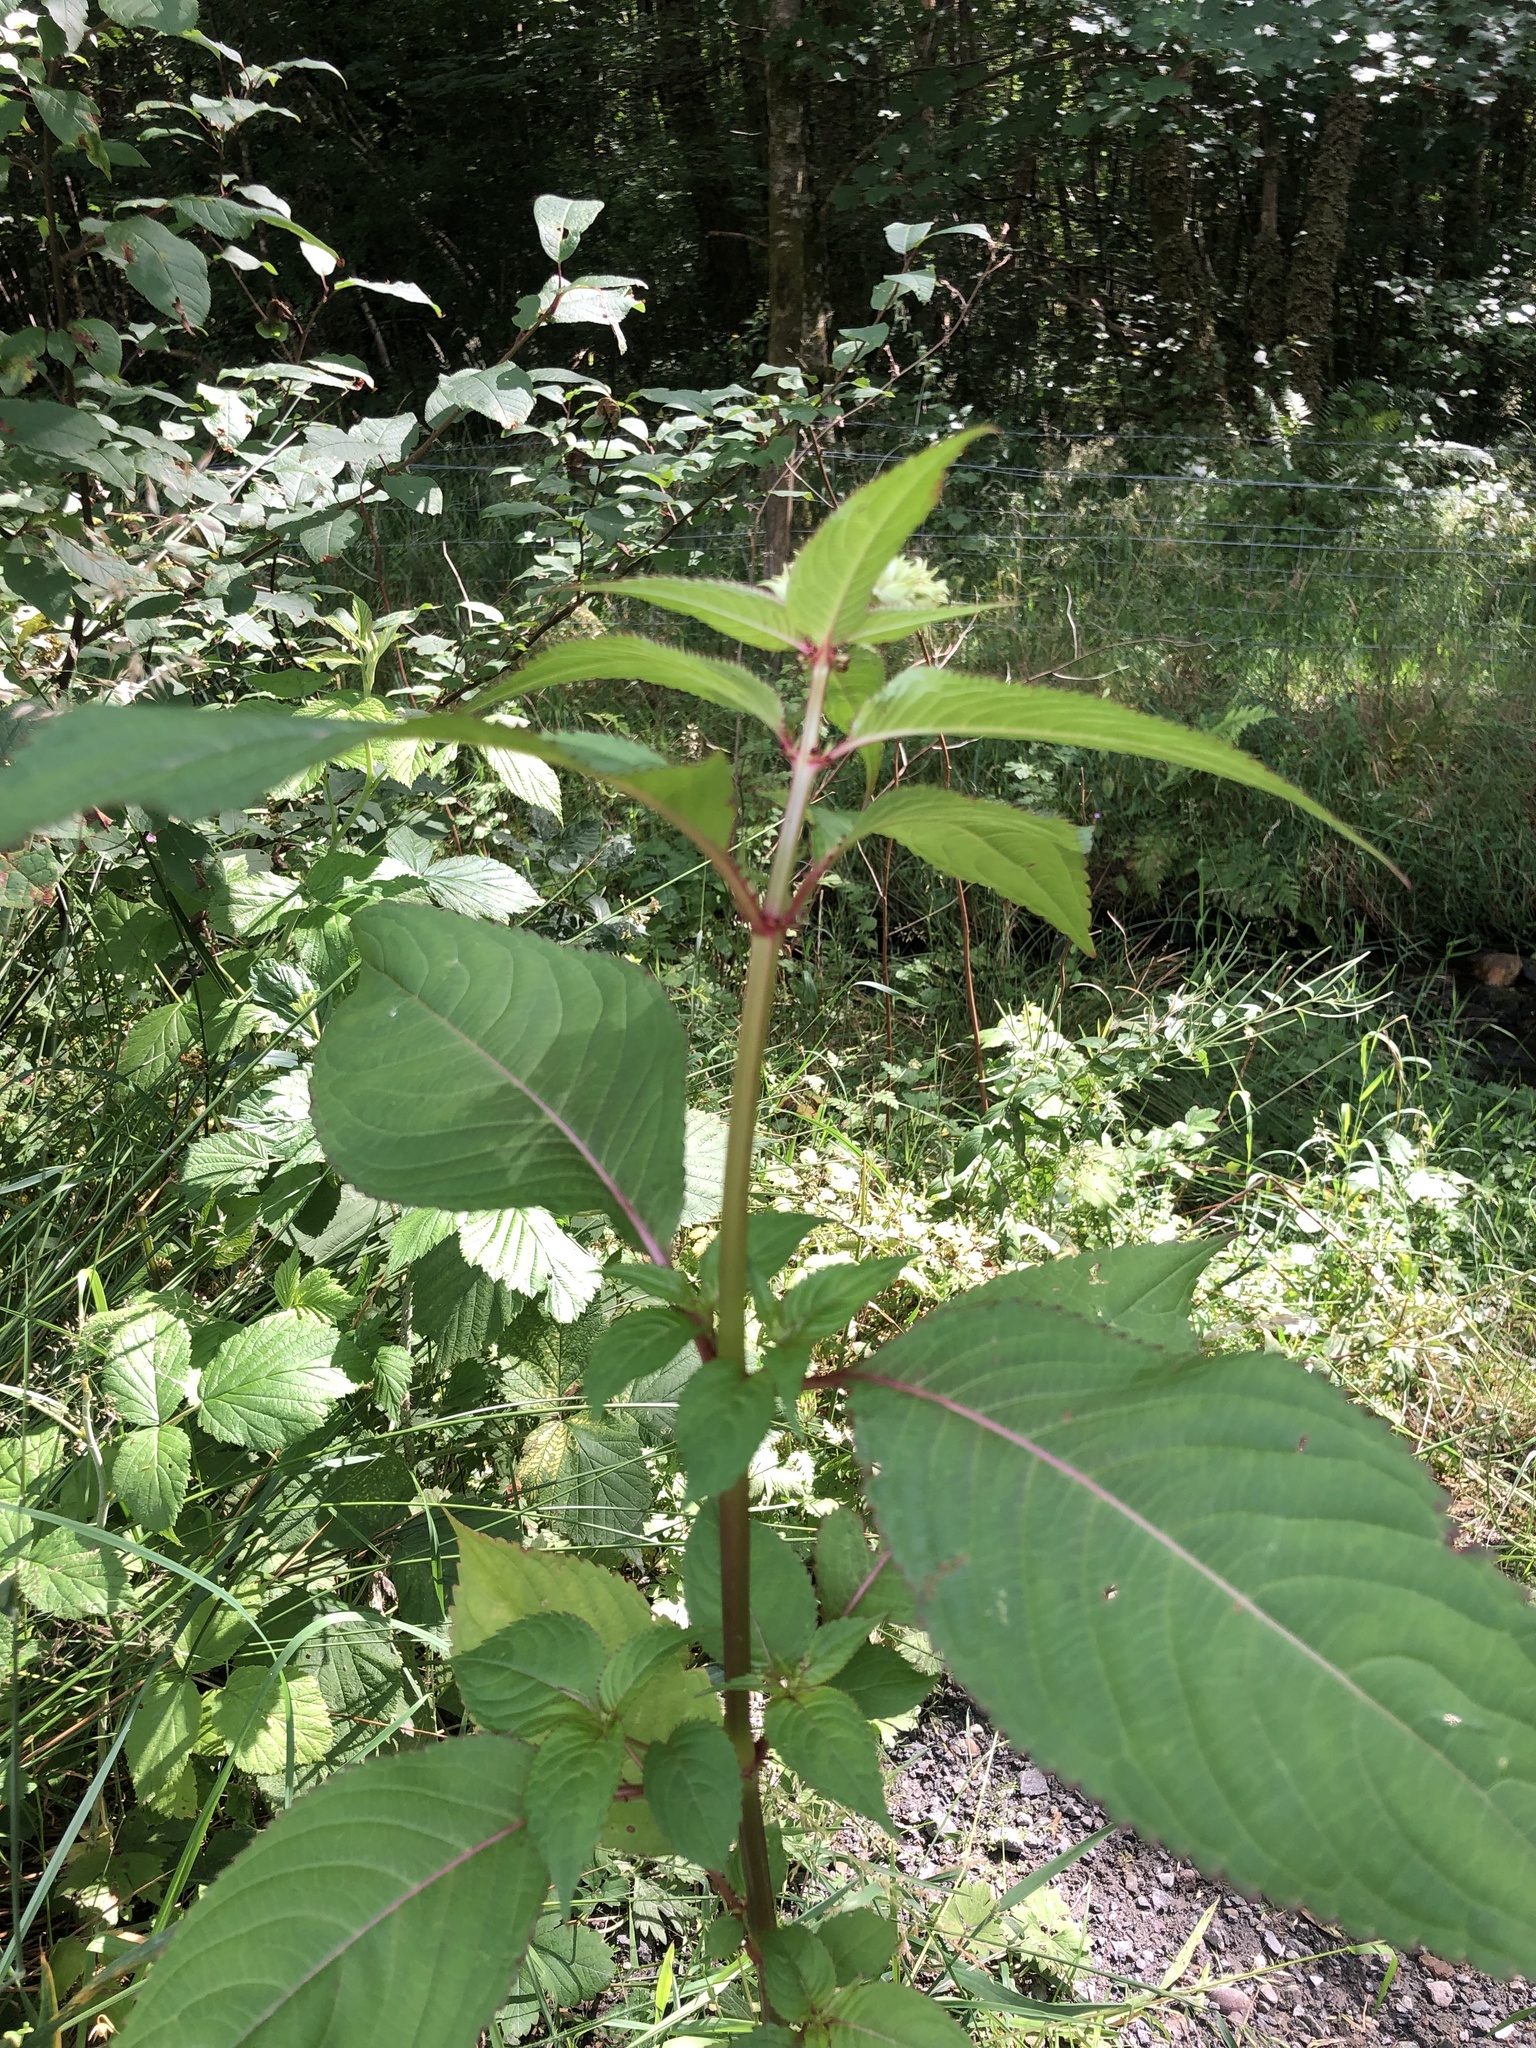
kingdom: Plantae
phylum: Tracheophyta
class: Magnoliopsida
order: Ericales
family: Balsaminaceae
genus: Impatiens
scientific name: Impatiens glandulifera
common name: Himalayan balsam
